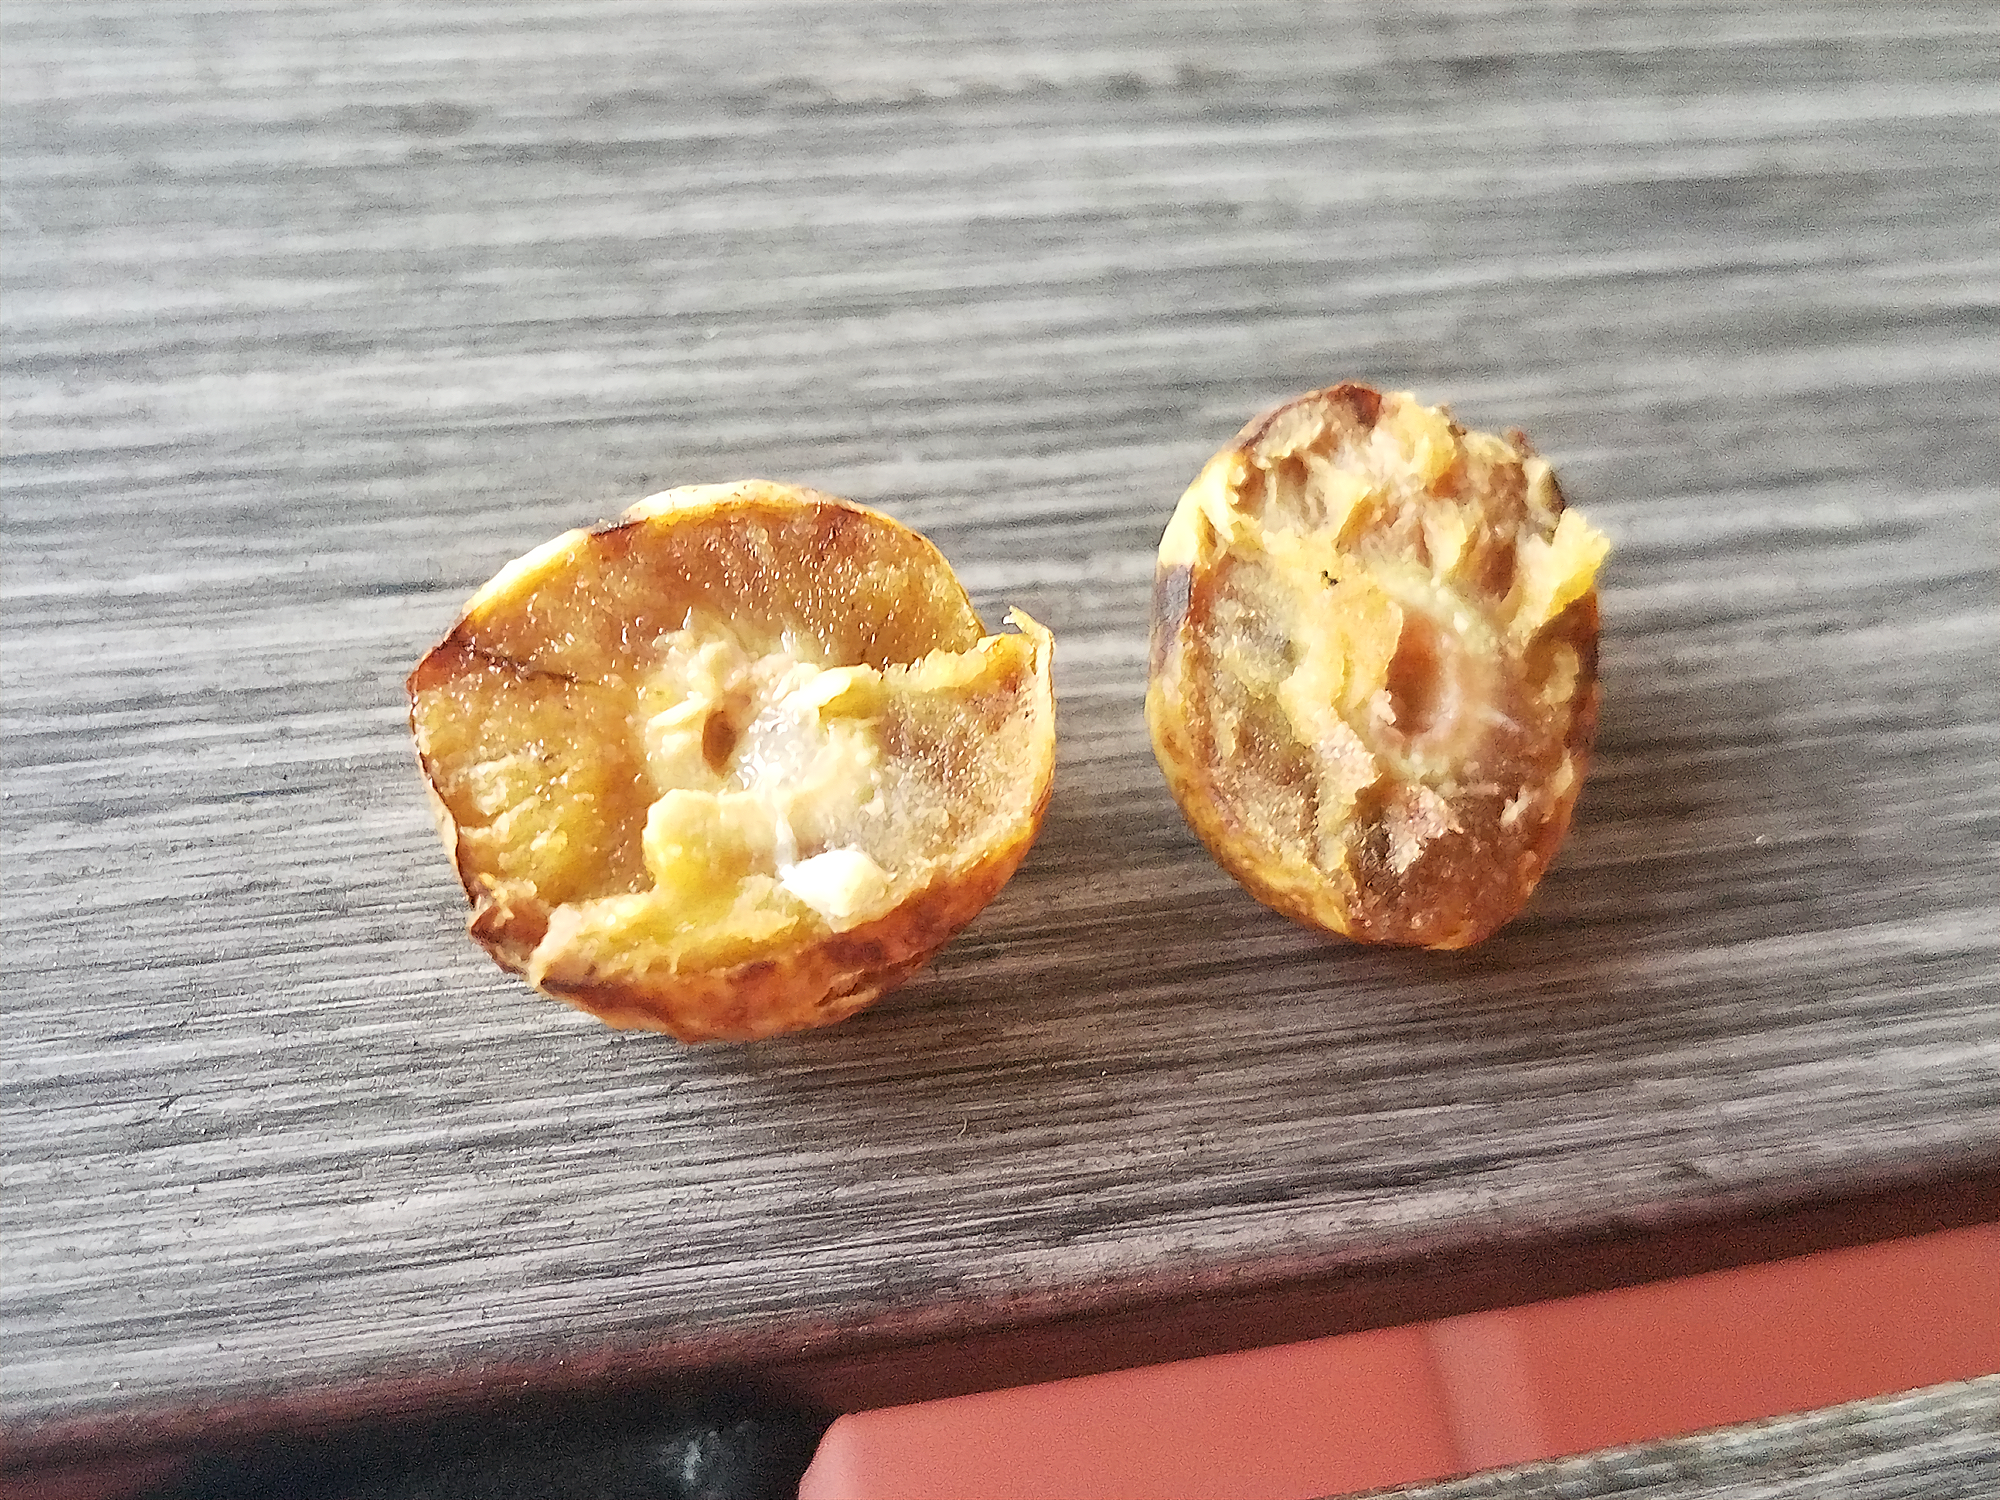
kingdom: Animalia
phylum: Arthropoda
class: Insecta
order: Hymenoptera
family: Cynipidae
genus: Amphibolips
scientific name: Amphibolips gainesi
